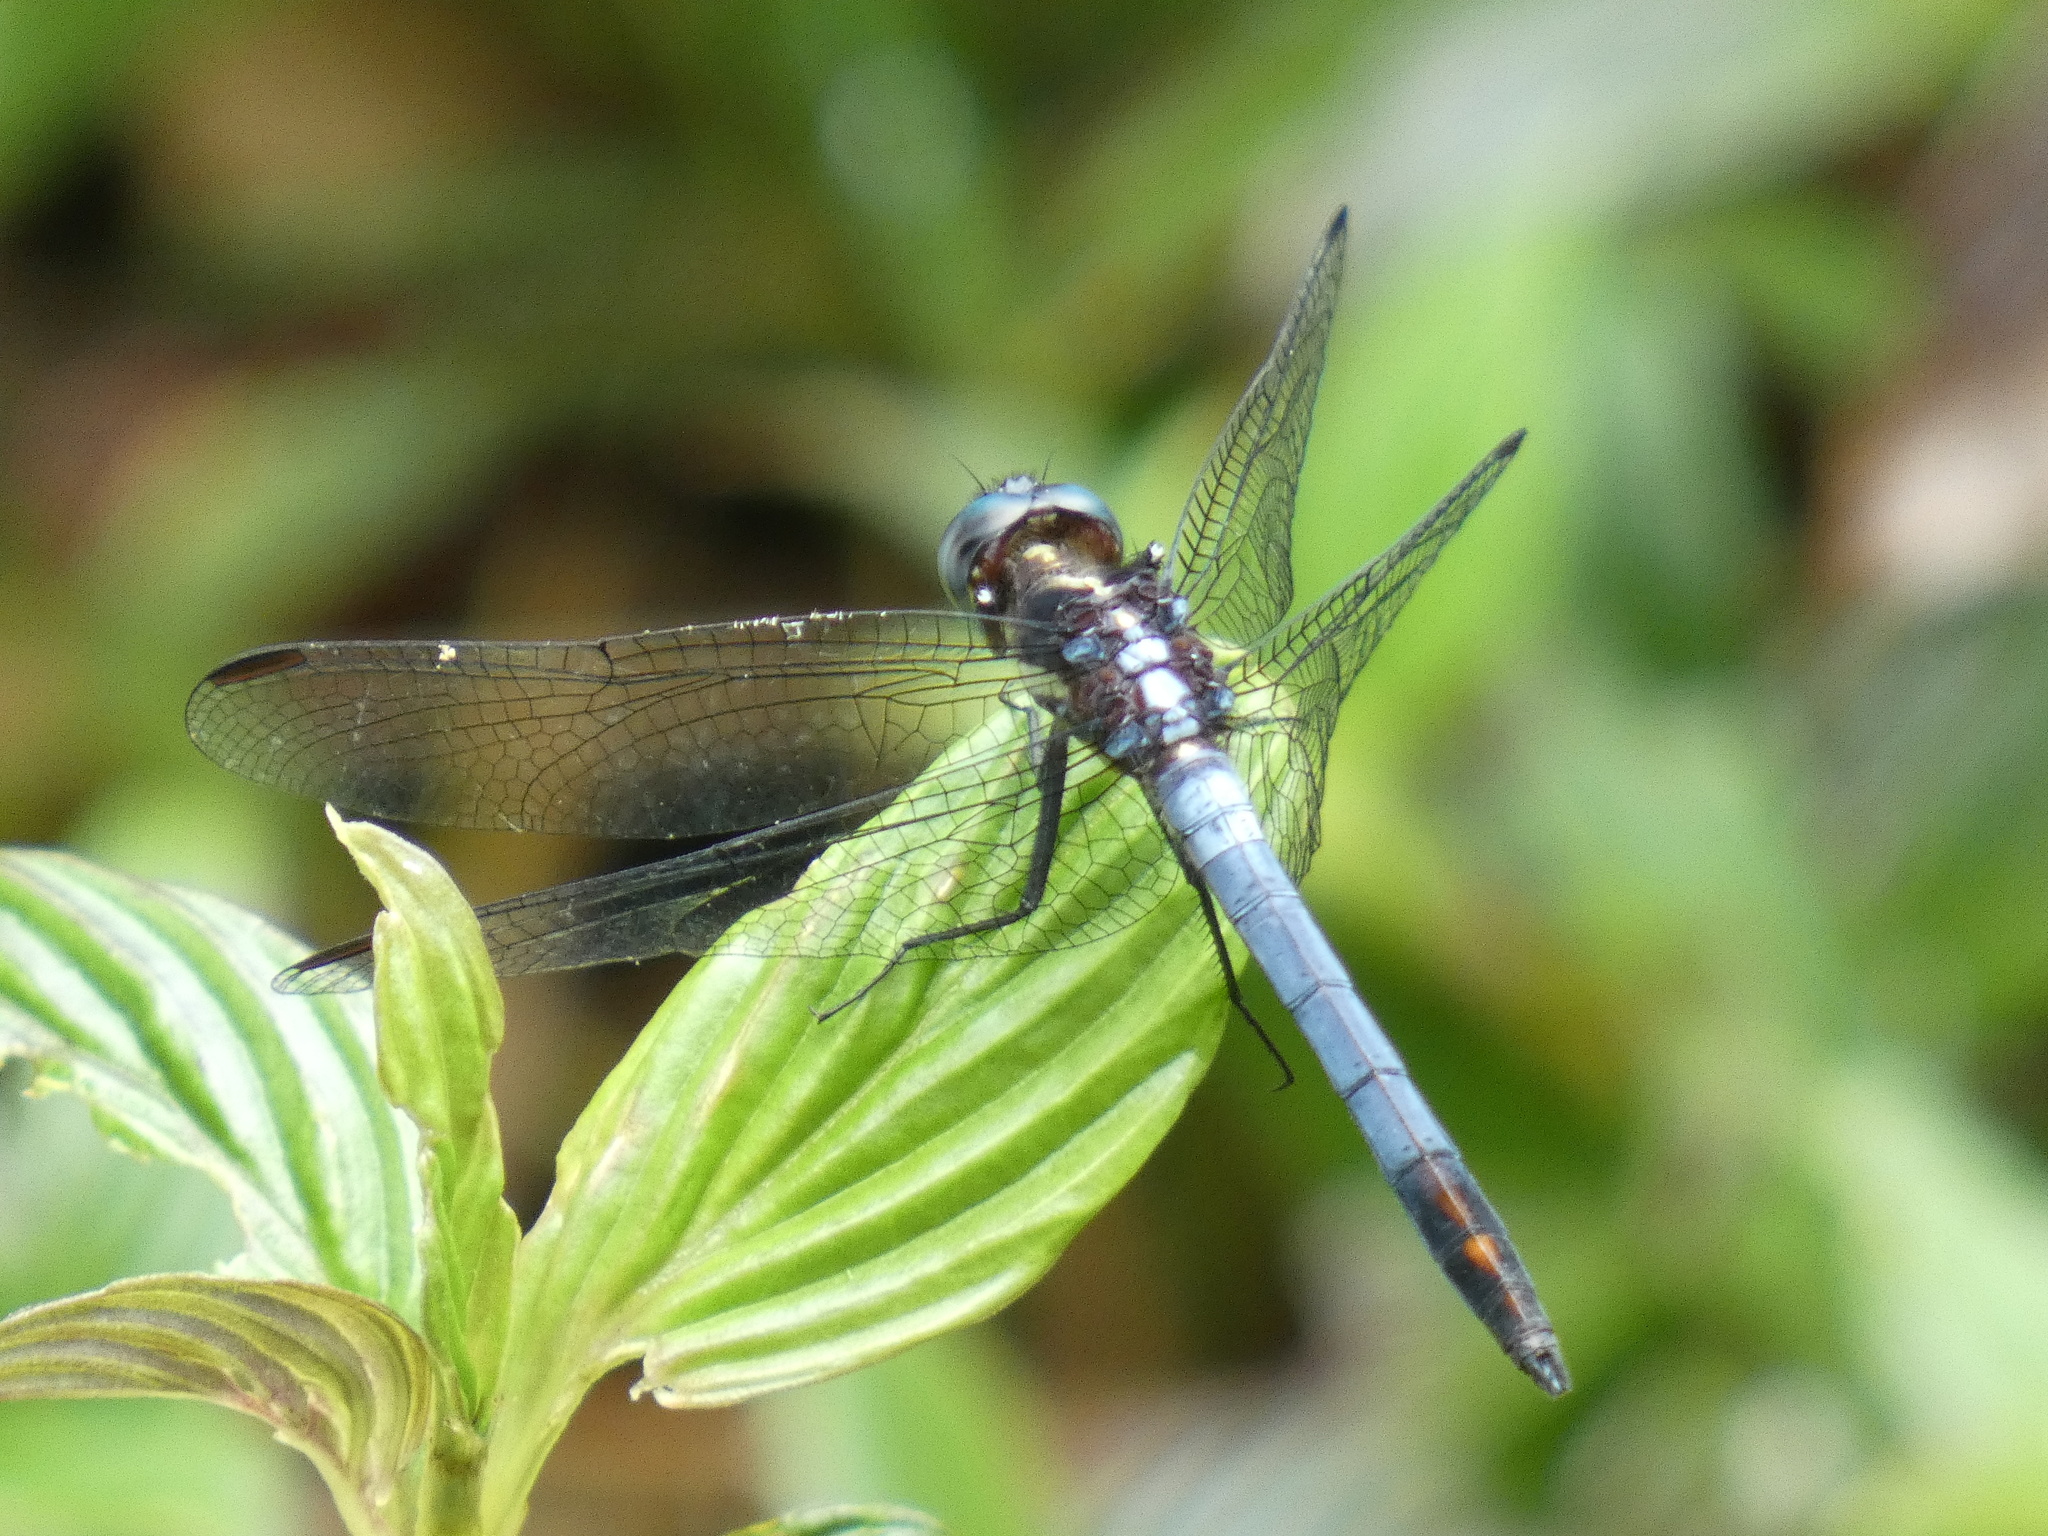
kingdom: Animalia
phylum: Arthropoda
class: Insecta
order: Odonata
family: Libellulidae
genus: Dasythemis
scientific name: Dasythemis mincki
